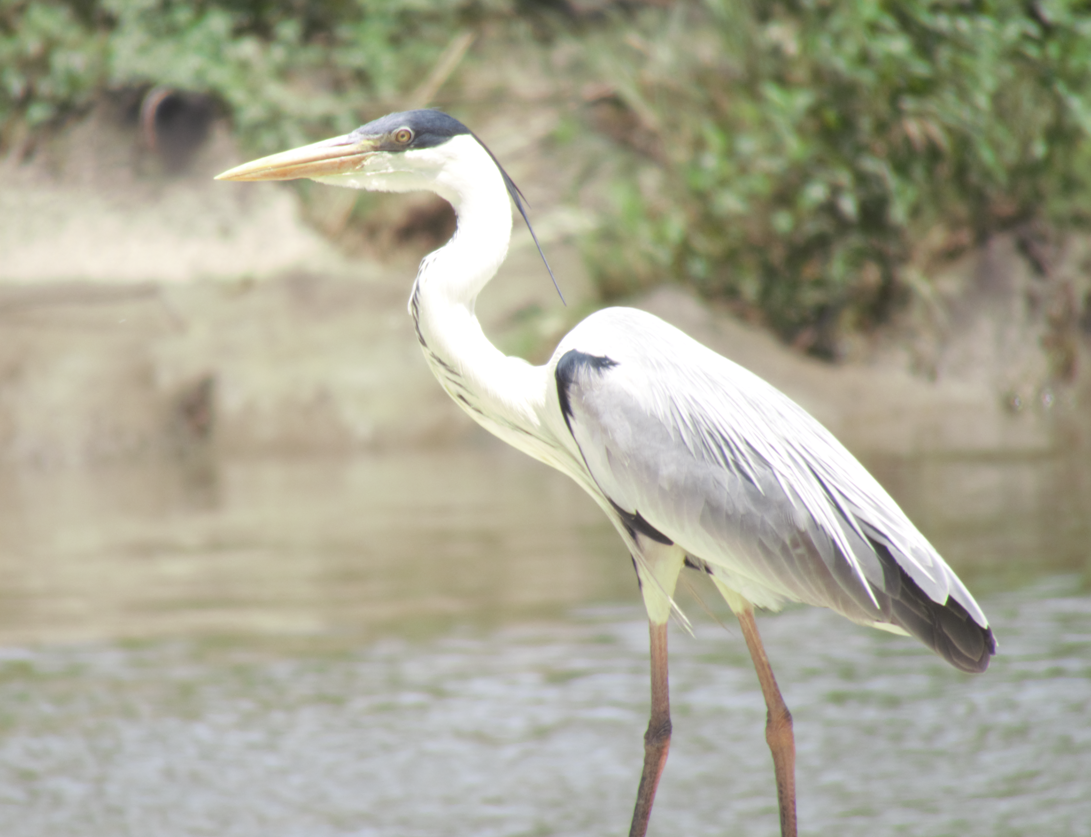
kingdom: Animalia
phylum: Chordata
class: Aves
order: Pelecaniformes
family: Ardeidae
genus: Ardea
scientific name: Ardea cocoi
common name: Cocoi heron
